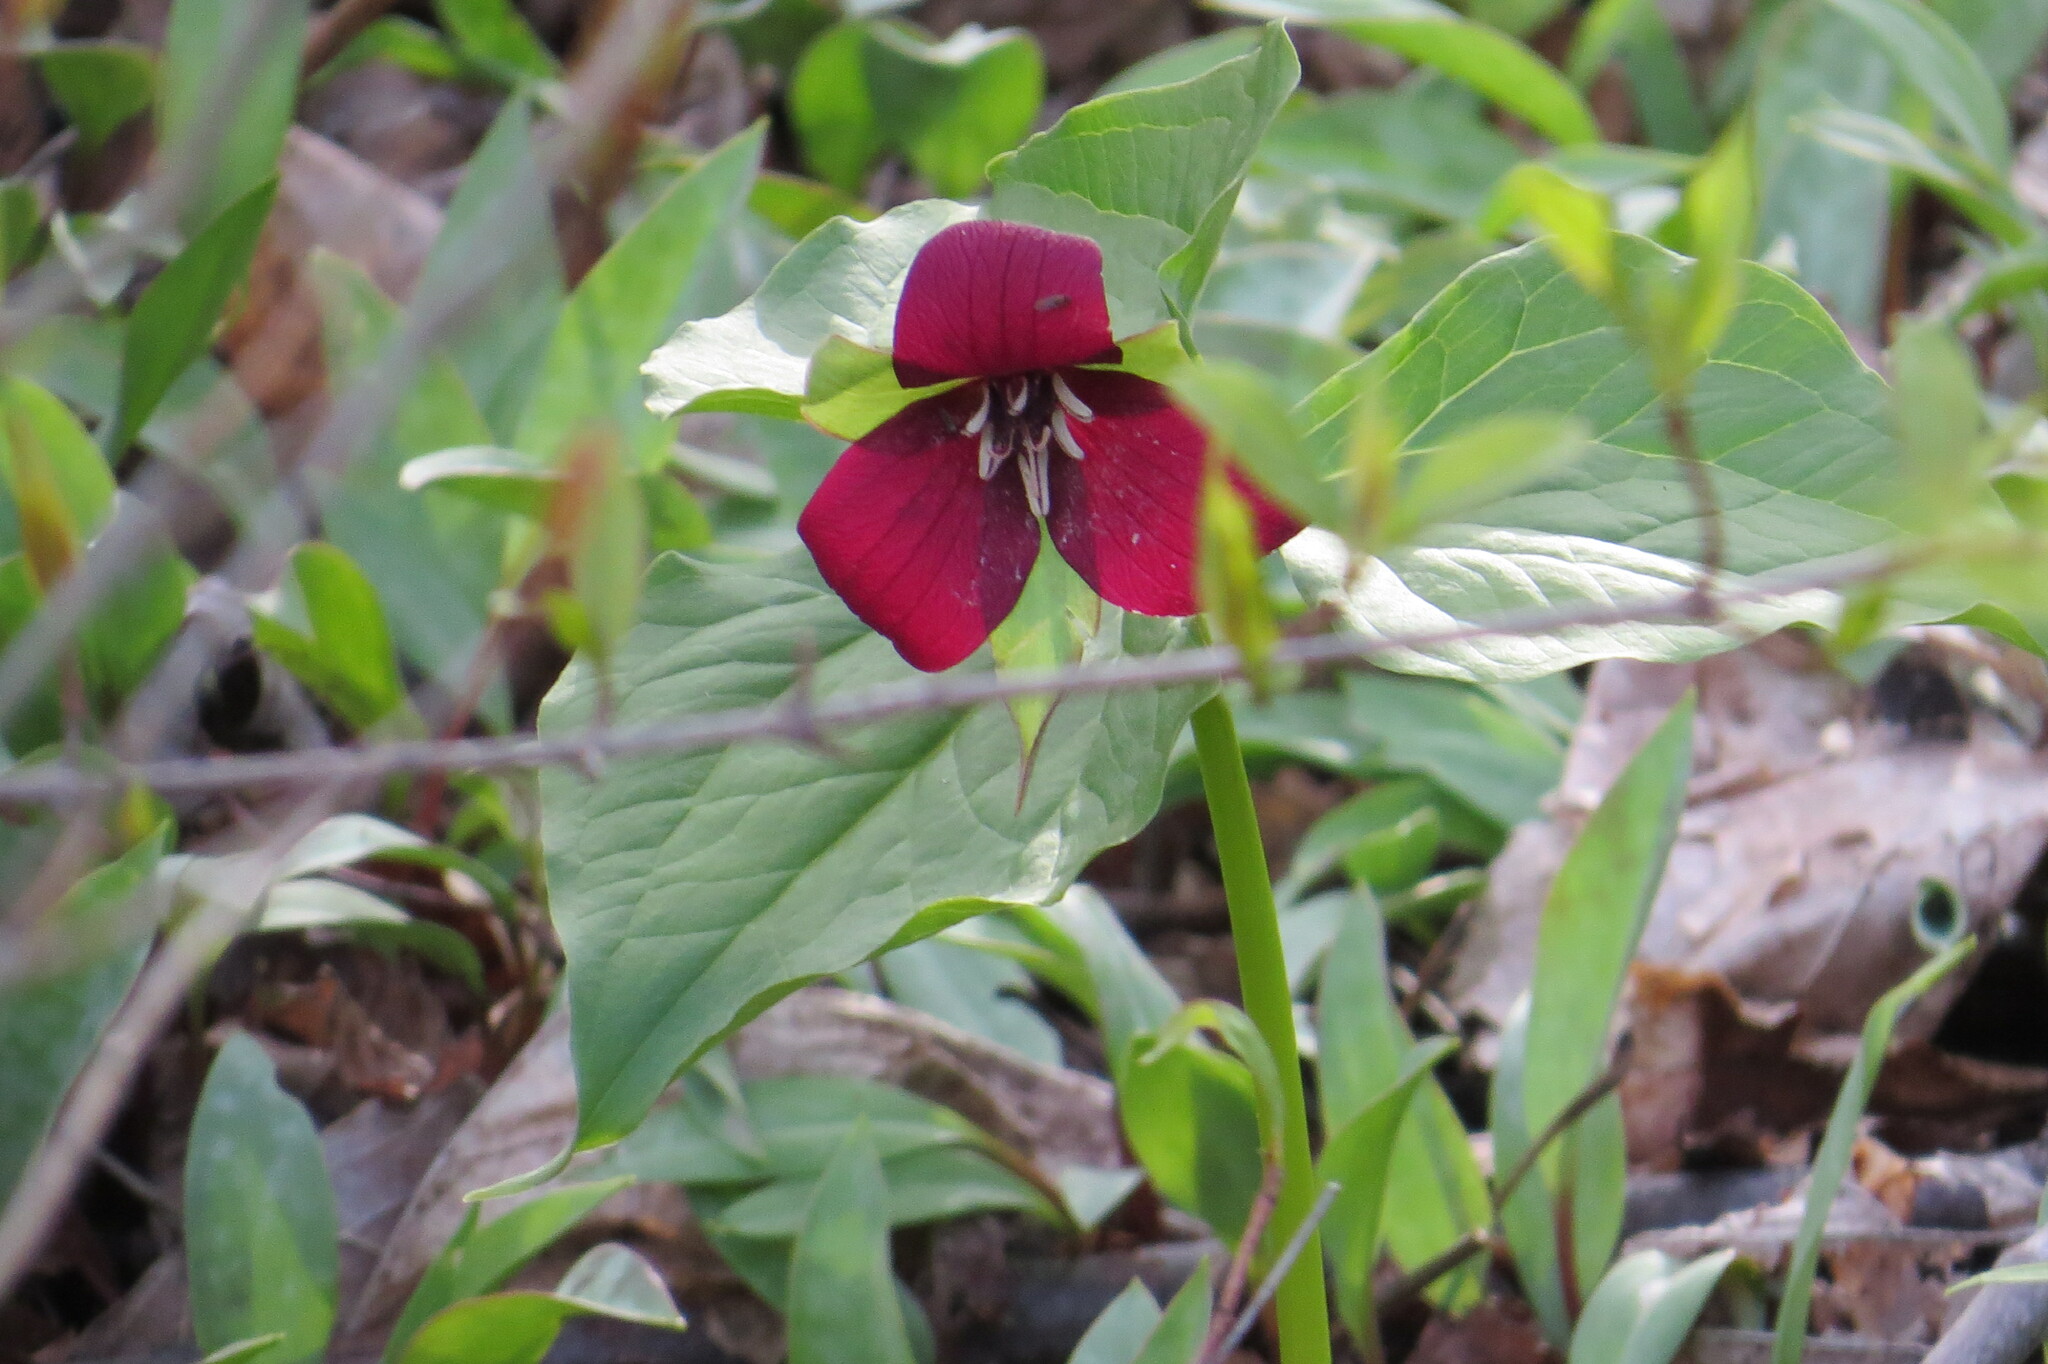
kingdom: Plantae
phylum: Tracheophyta
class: Liliopsida
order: Liliales
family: Melanthiaceae
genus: Trillium
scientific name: Trillium erectum
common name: Purple trillium
